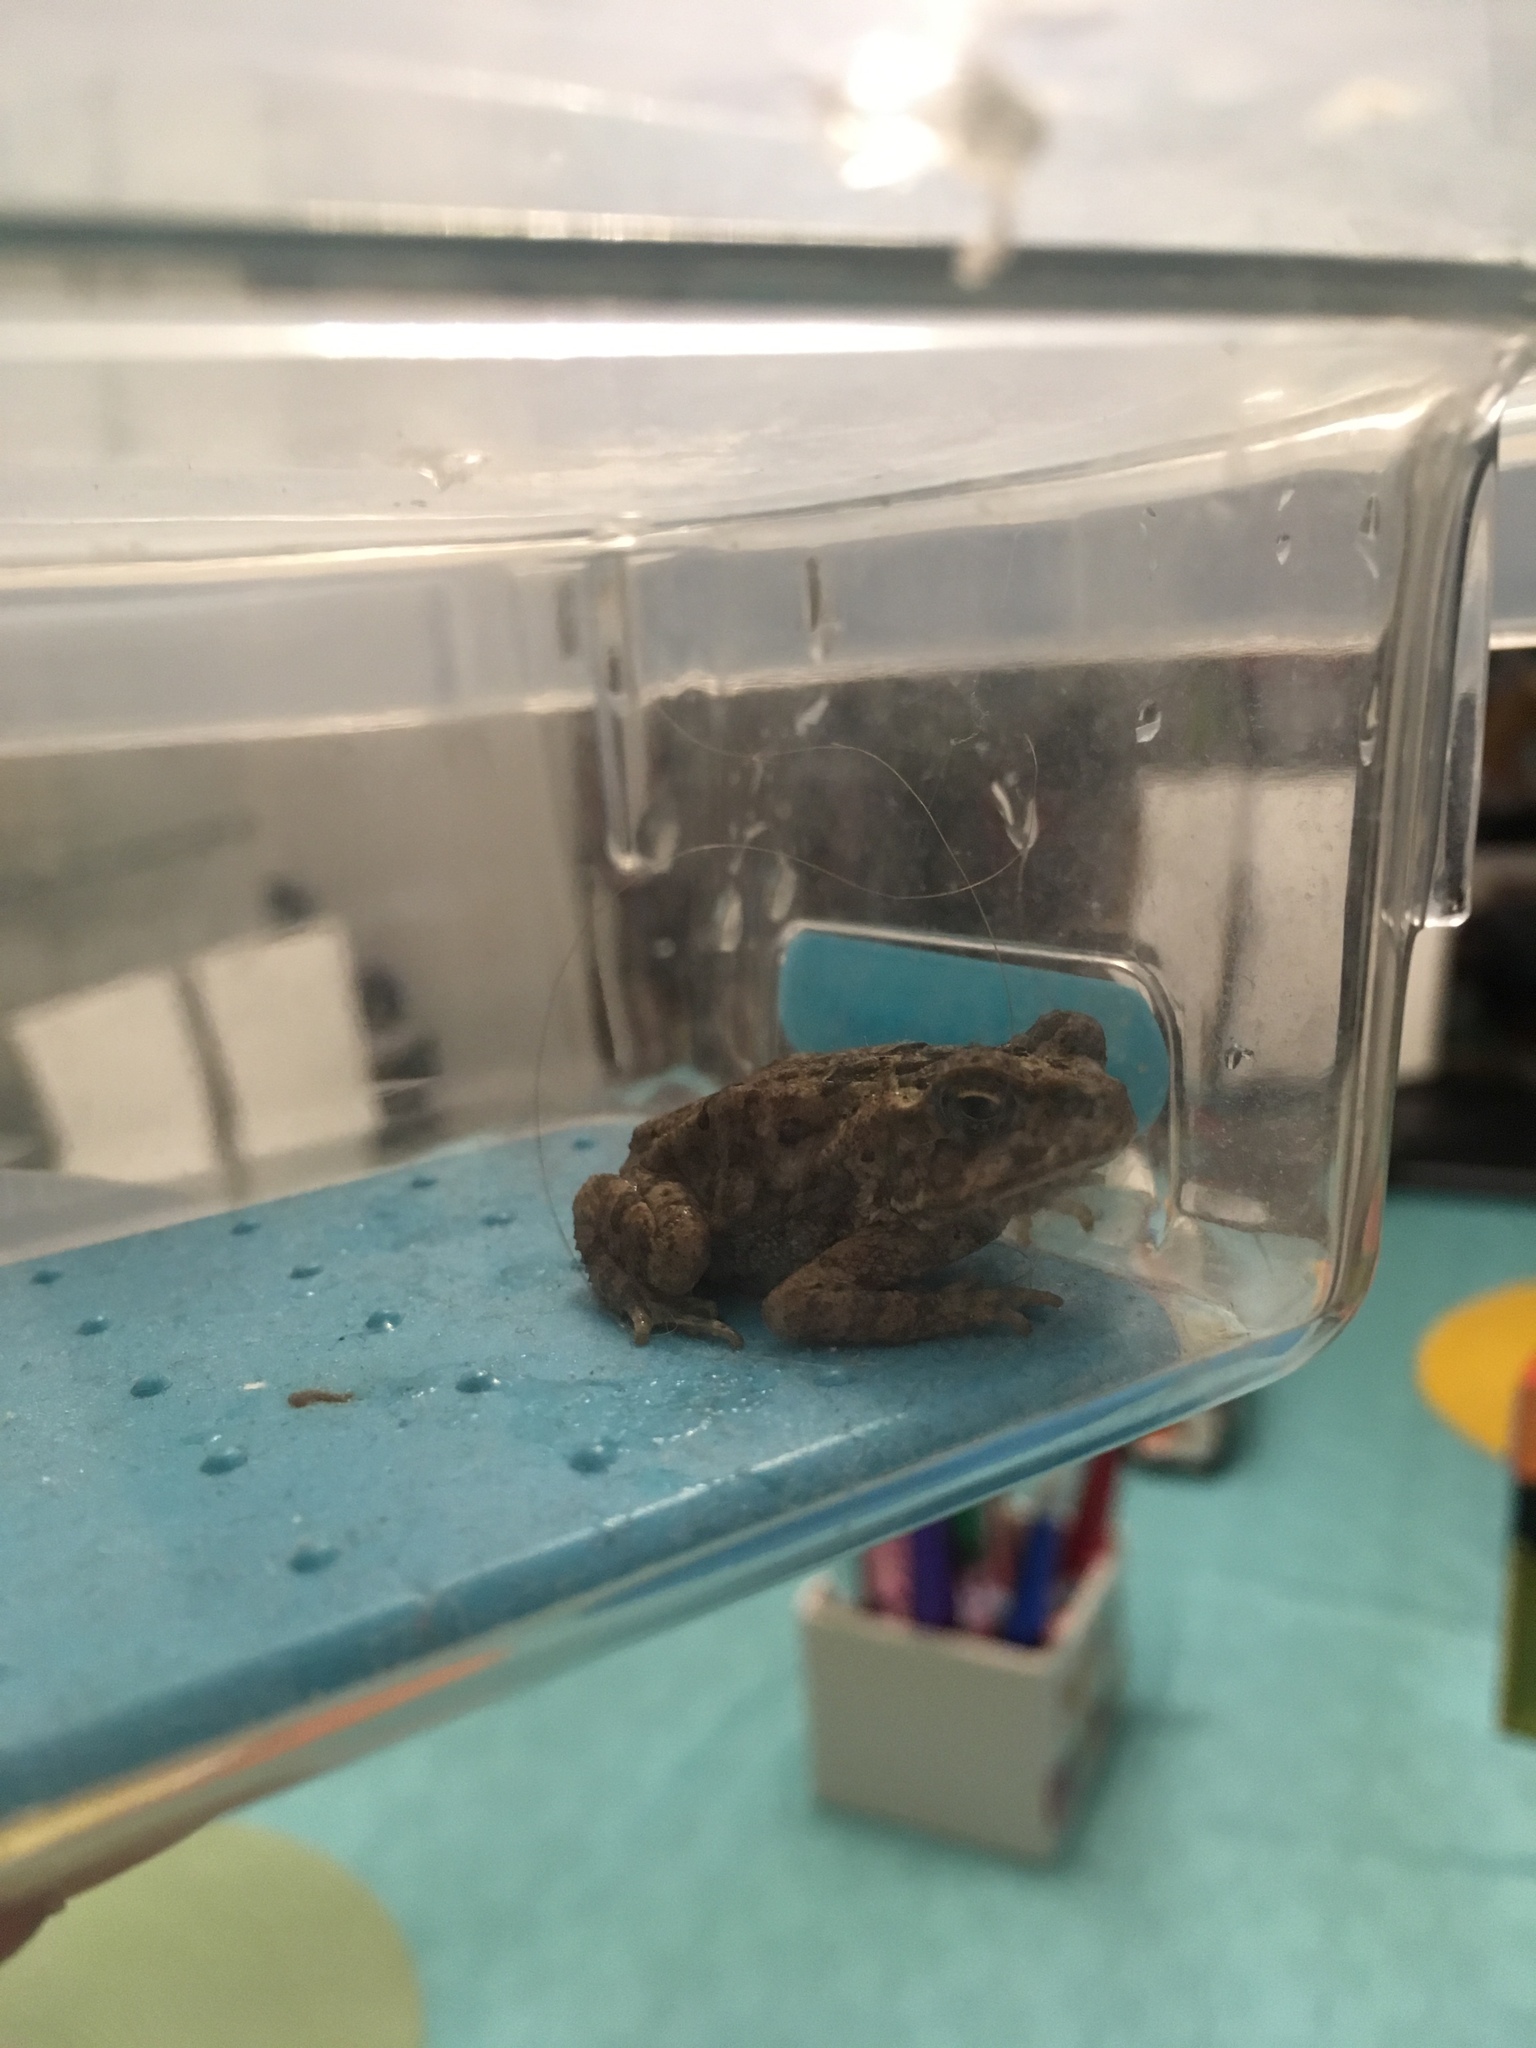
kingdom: Animalia
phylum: Chordata
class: Amphibia
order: Anura
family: Bufonidae
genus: Rhinella
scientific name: Rhinella marina
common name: Cane toad
